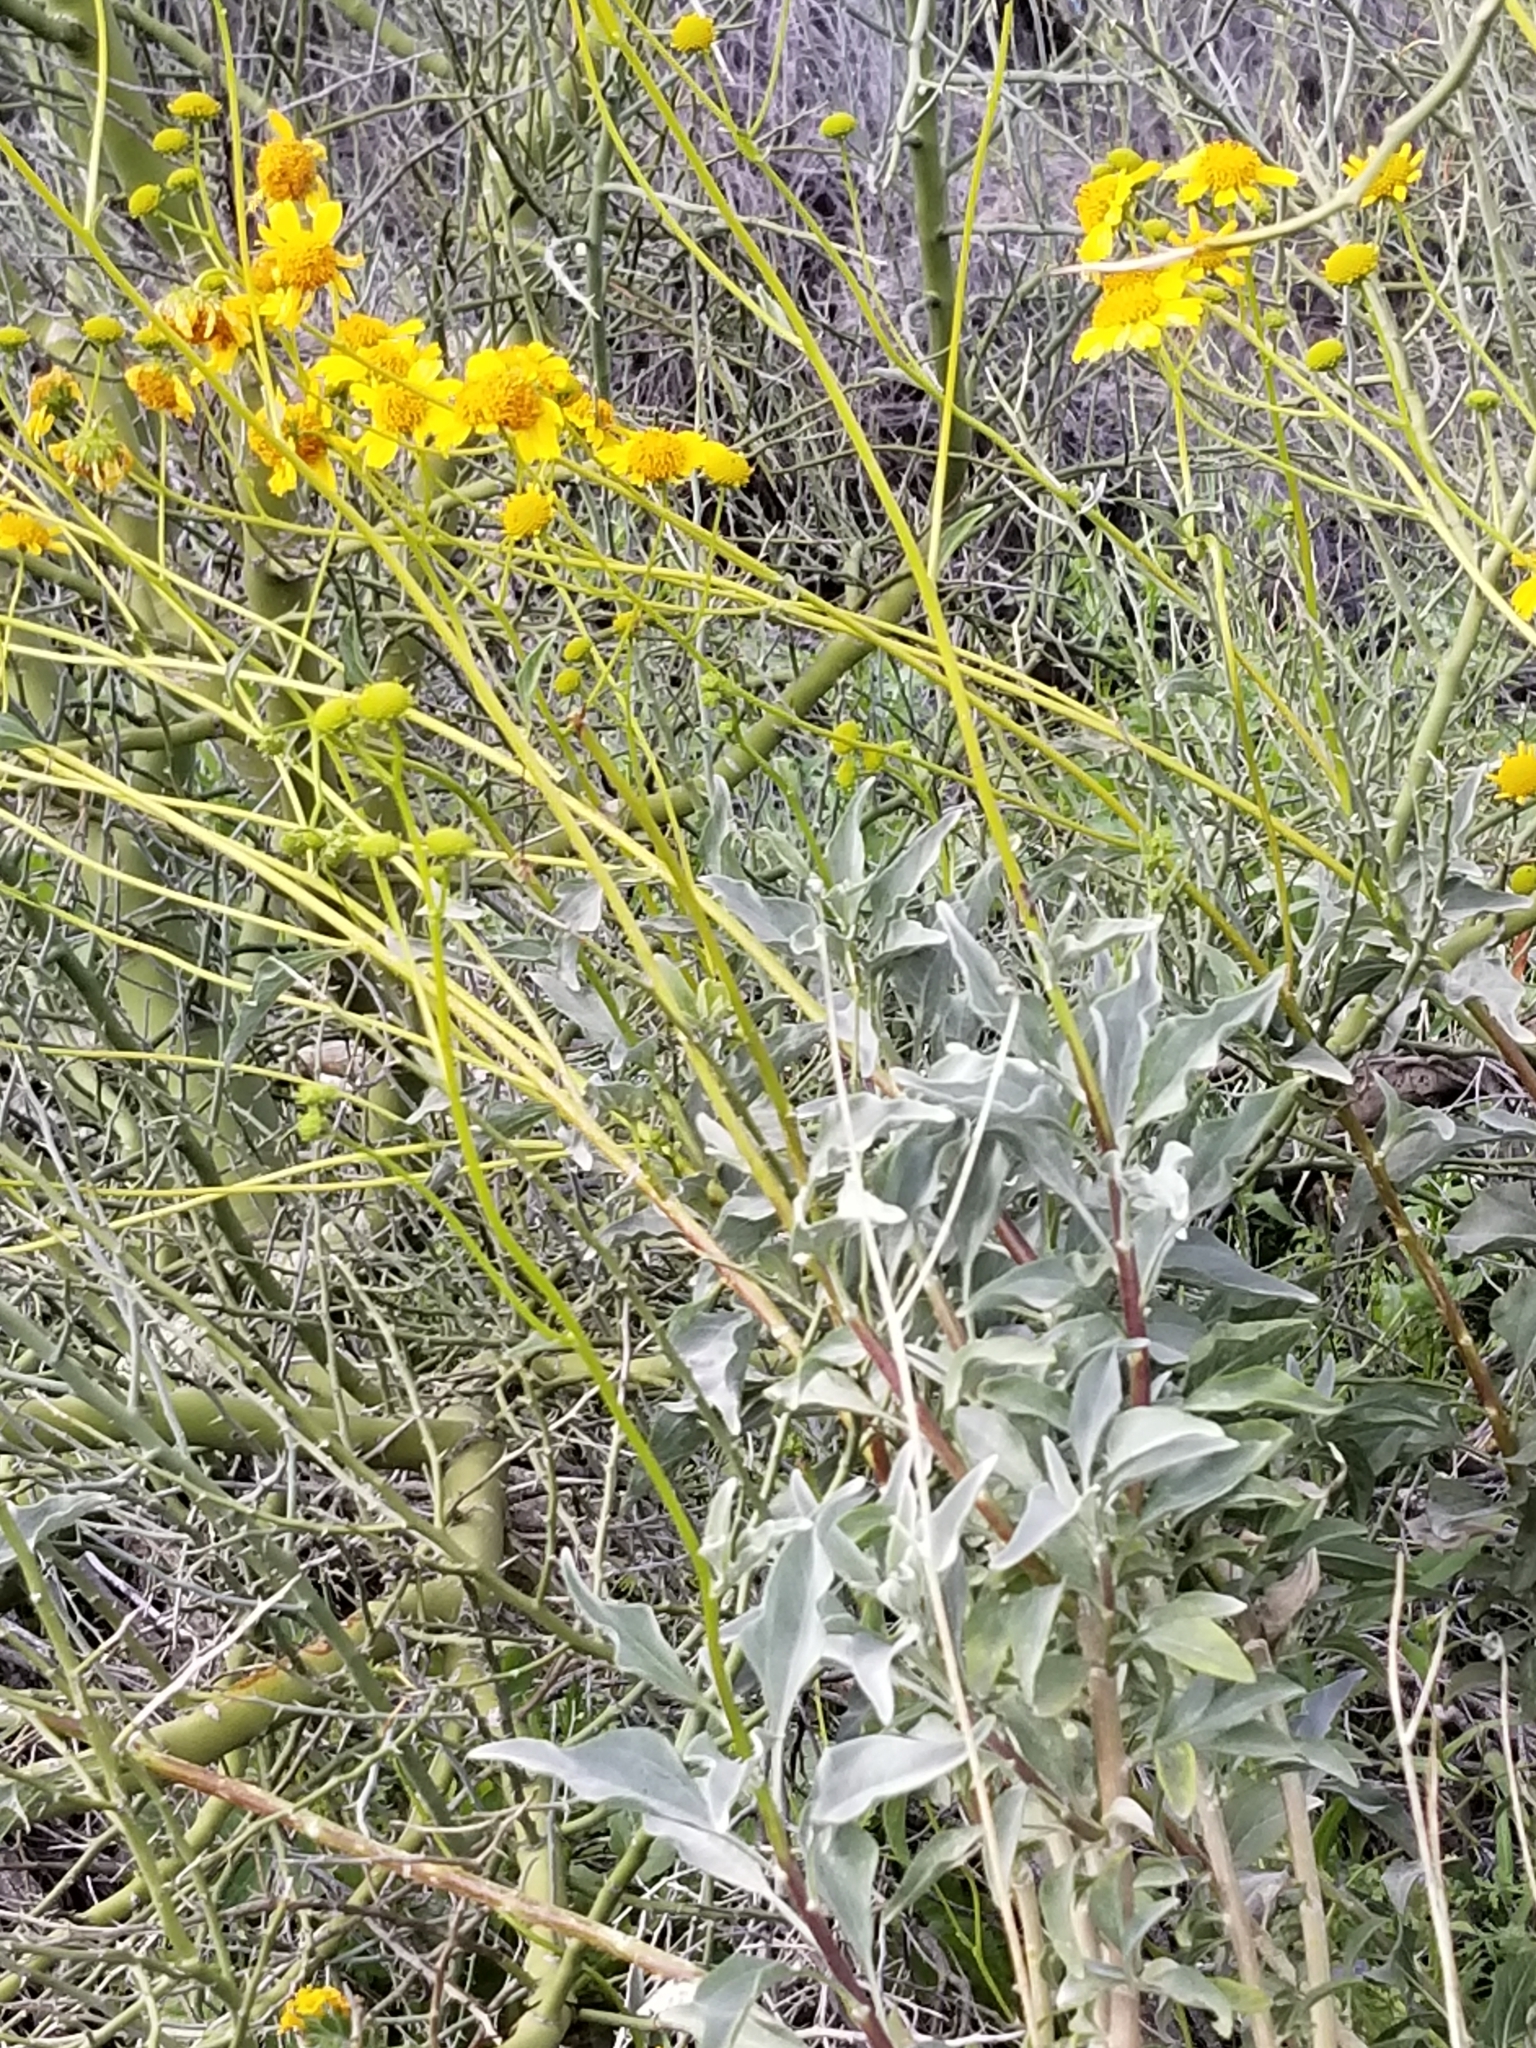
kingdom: Plantae
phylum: Tracheophyta
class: Magnoliopsida
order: Asterales
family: Asteraceae
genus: Encelia
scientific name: Encelia farinosa
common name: Brittlebush
